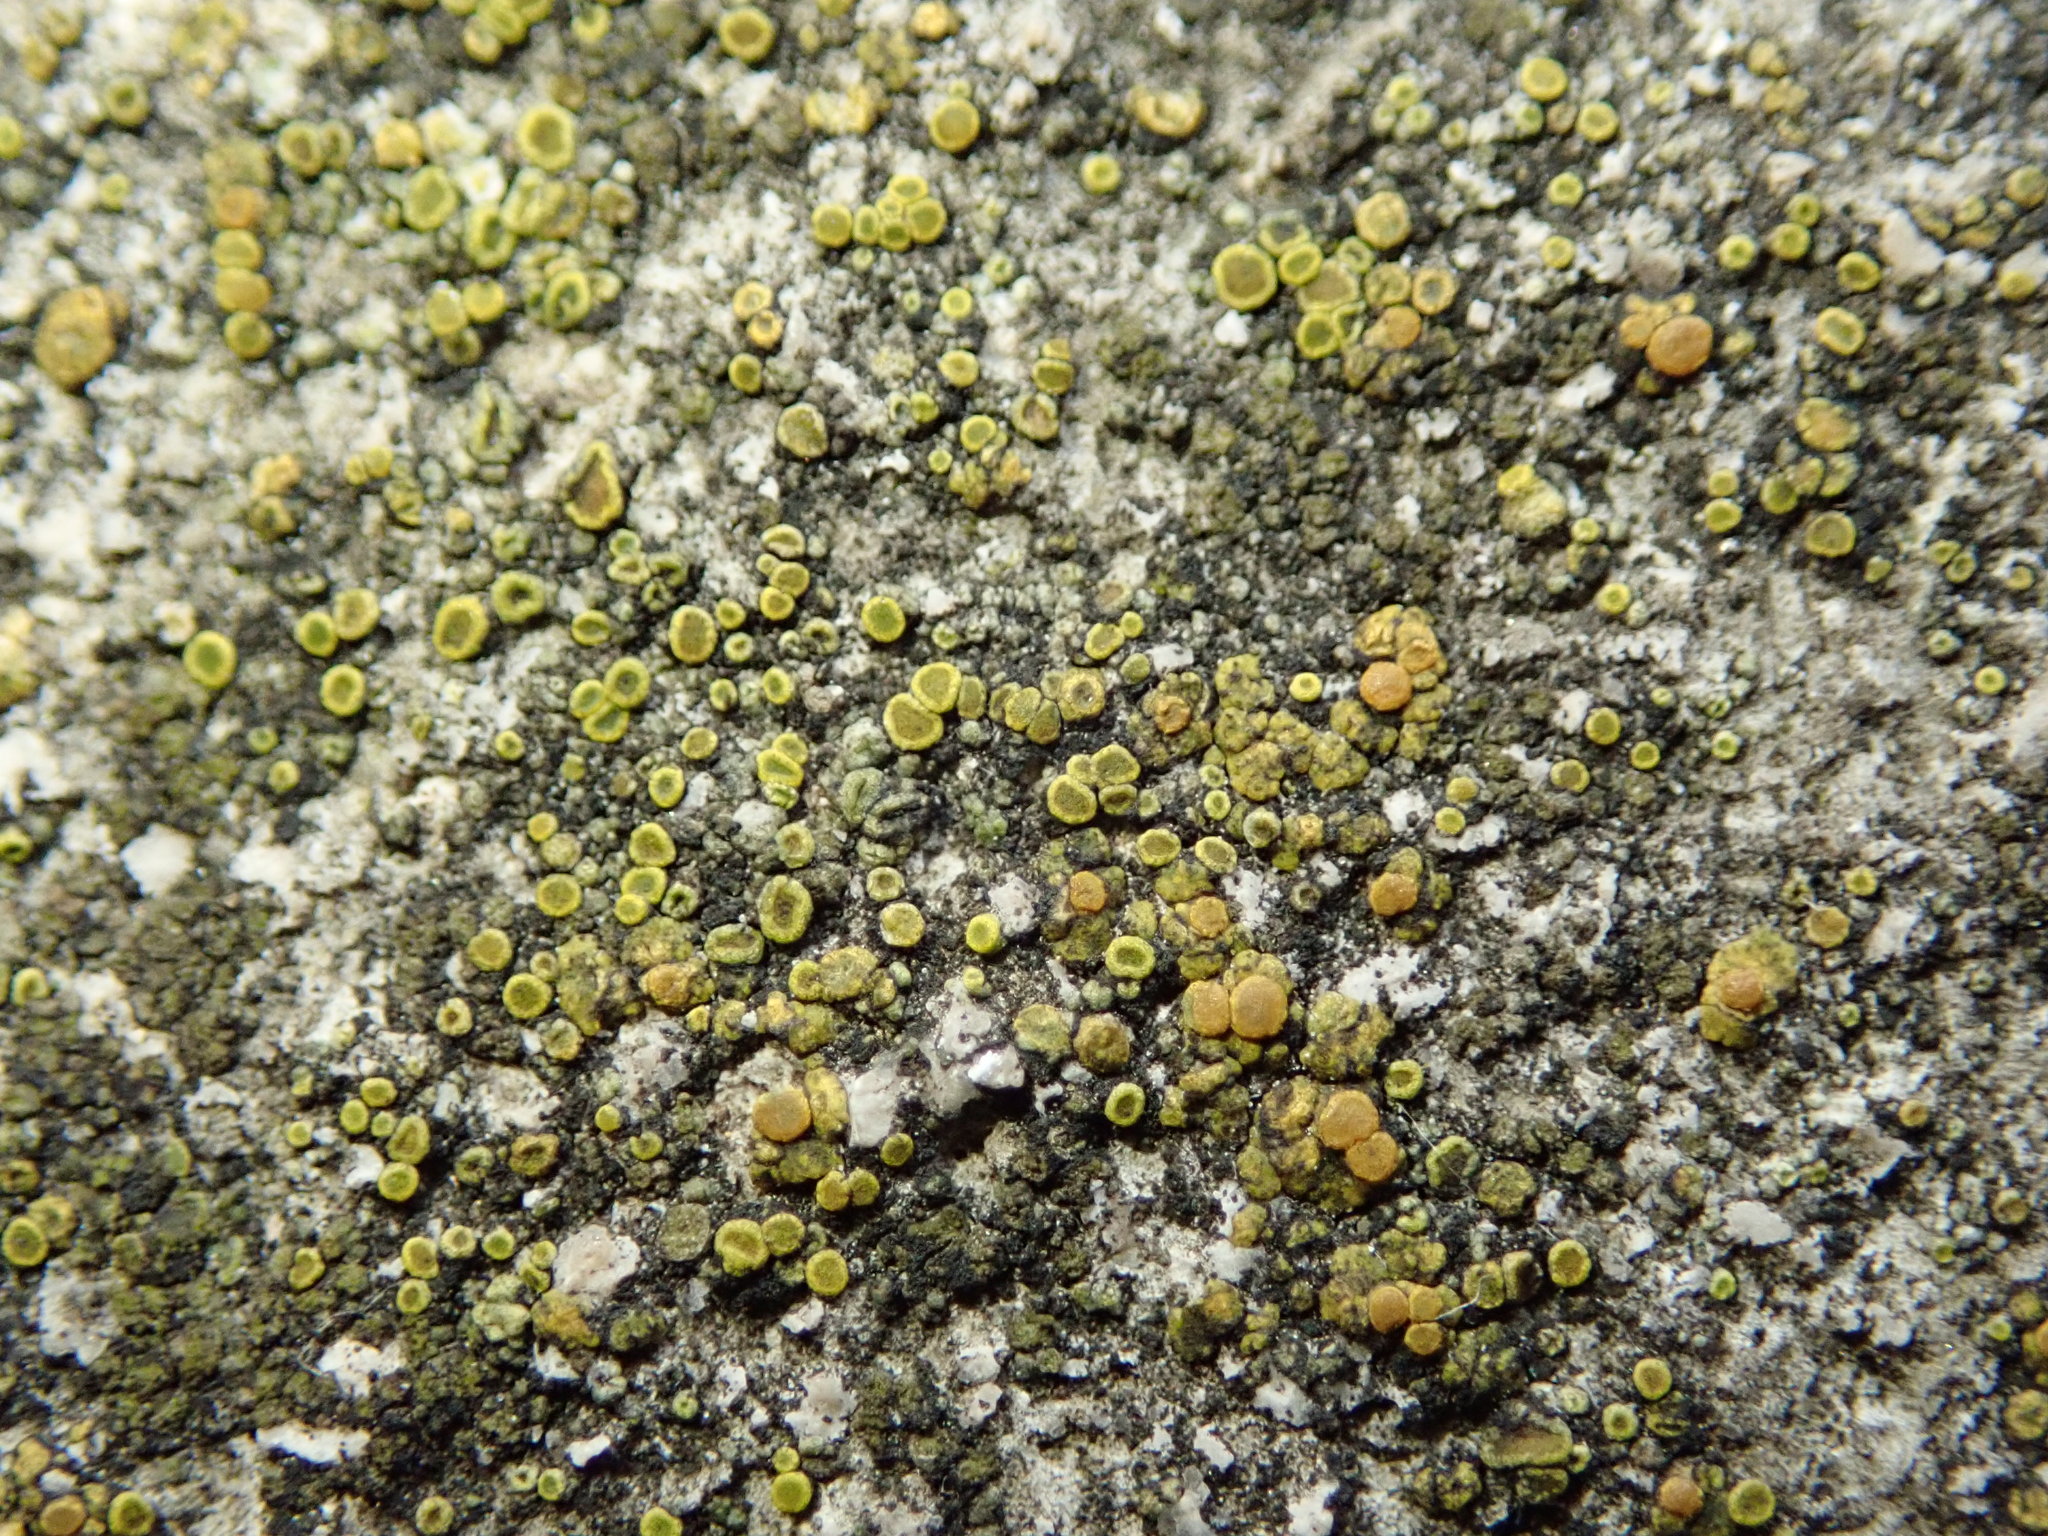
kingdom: Fungi
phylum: Ascomycota
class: Lecanoromycetes
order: Teloschistales
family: Teloschistaceae
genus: Xanthocarpia
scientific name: Xanthocarpia feracissima
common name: Sidewalk firedot
